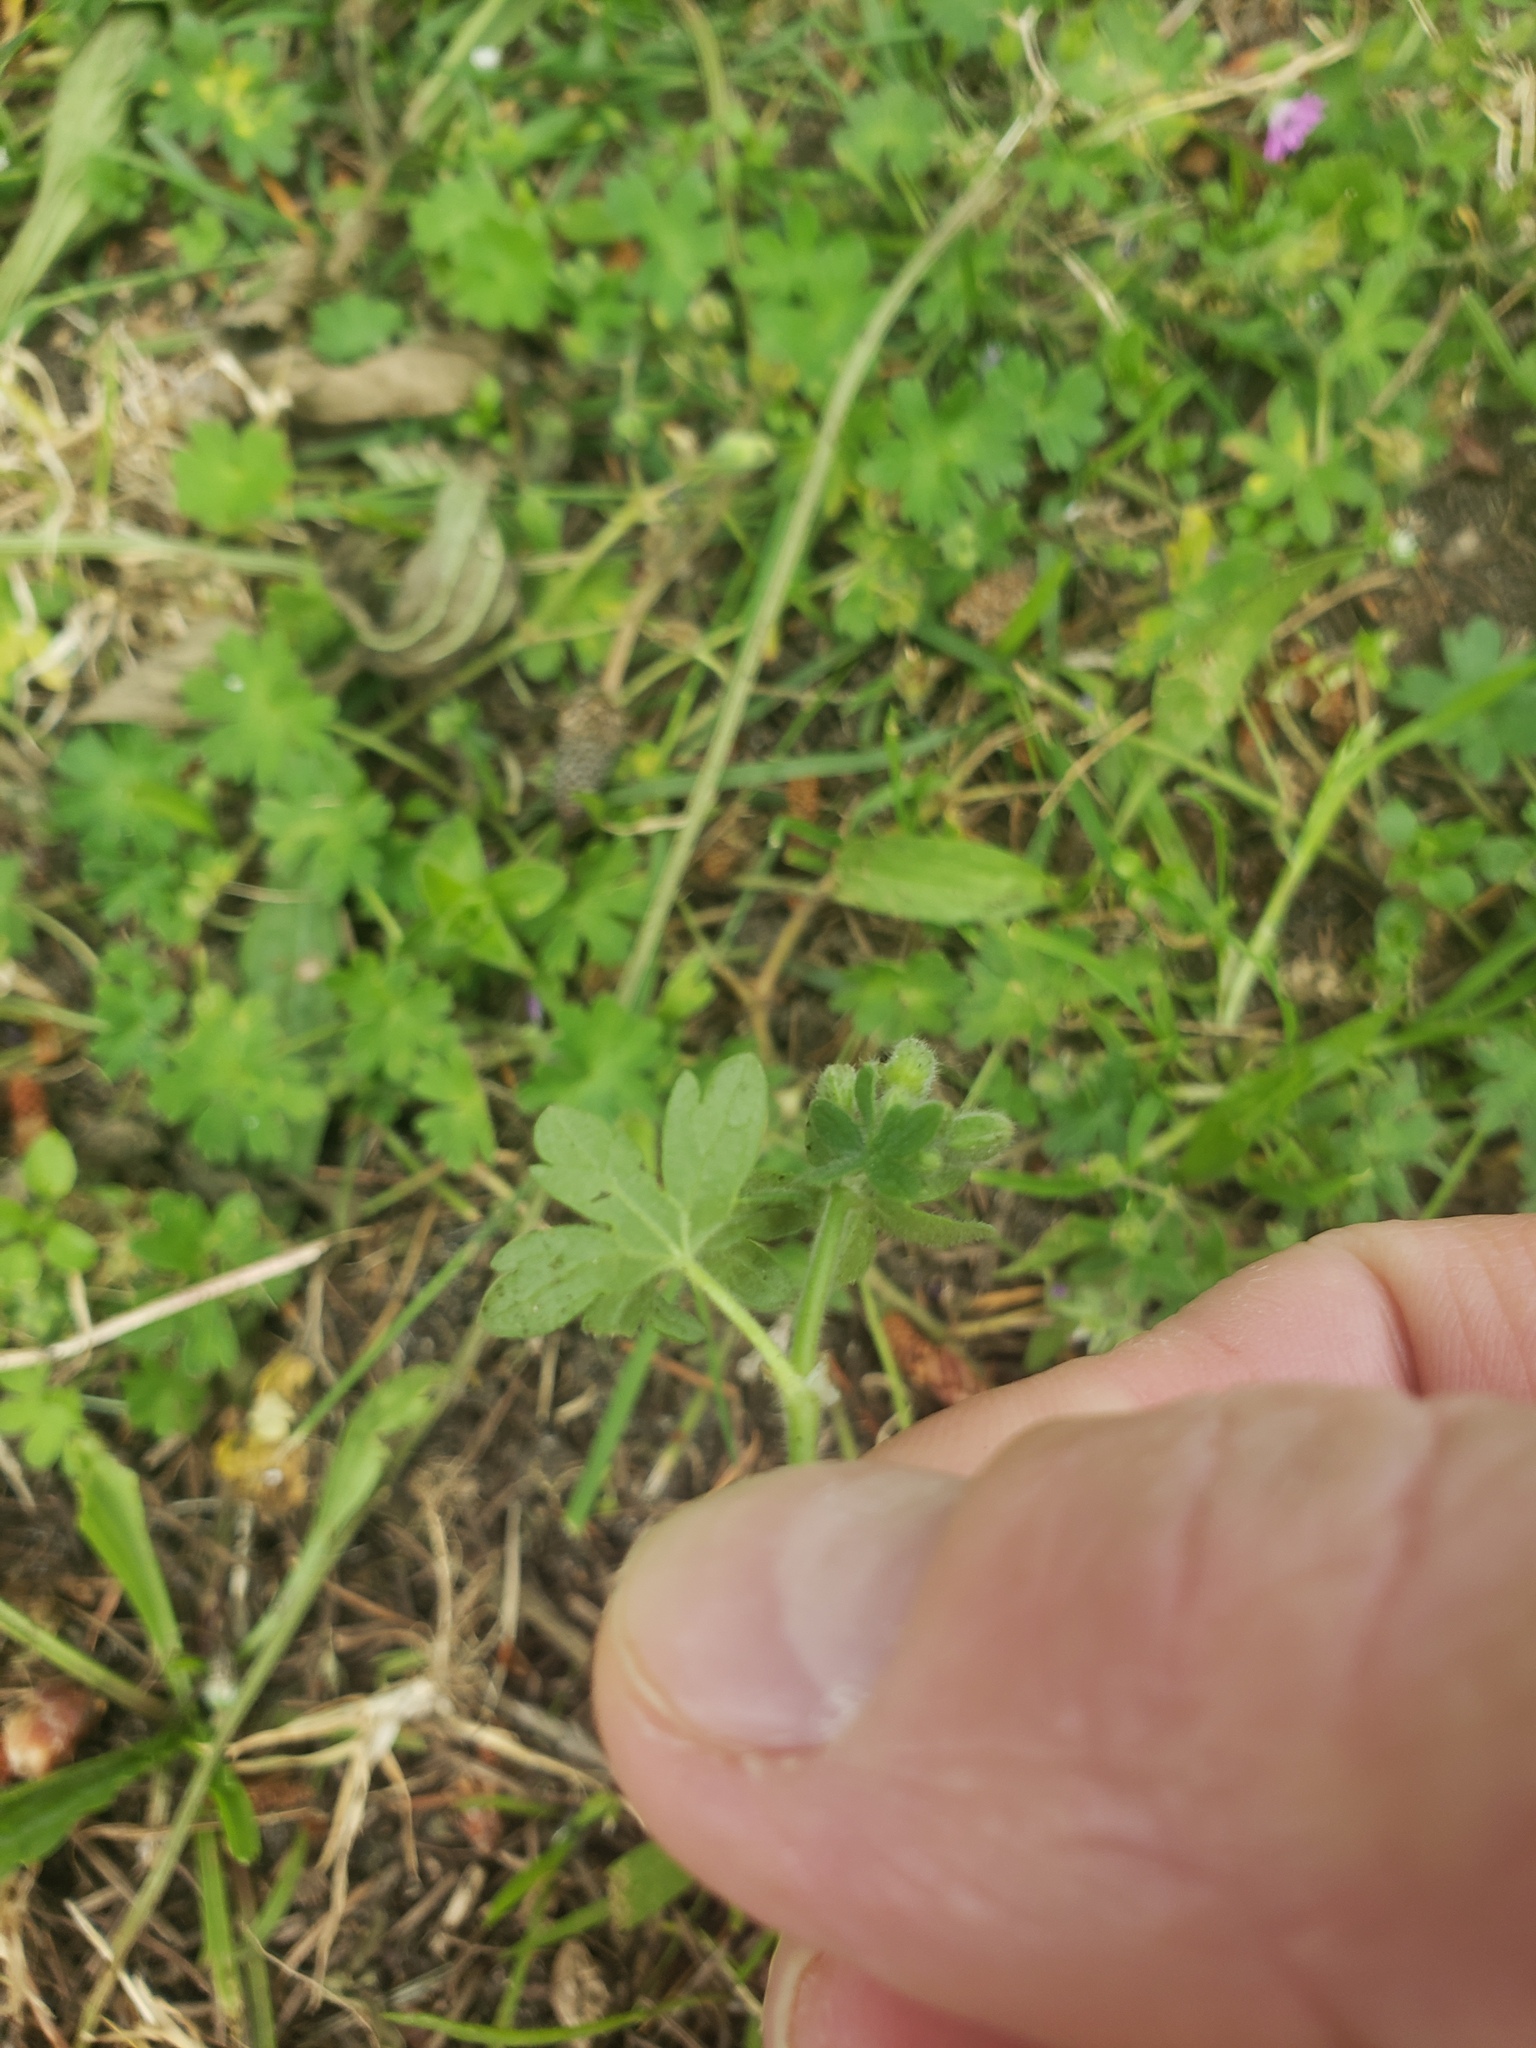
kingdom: Plantae
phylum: Tracheophyta
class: Magnoliopsida
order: Geraniales
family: Geraniaceae
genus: Geranium
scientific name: Geranium molle
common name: Dove's-foot crane's-bill
